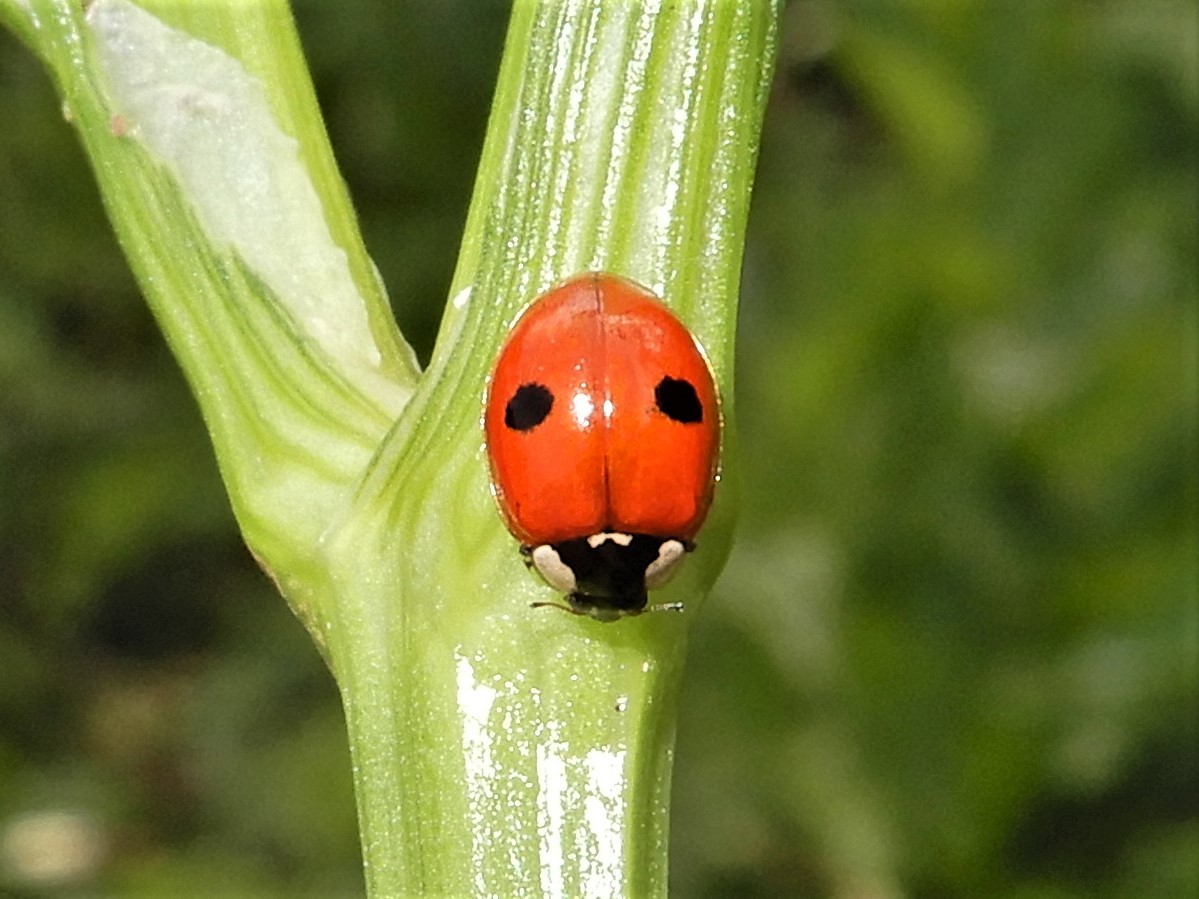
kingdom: Animalia
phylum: Arthropoda
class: Insecta
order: Coleoptera
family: Coccinellidae
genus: Adalia
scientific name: Adalia bipunctata
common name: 2-spot ladybird
